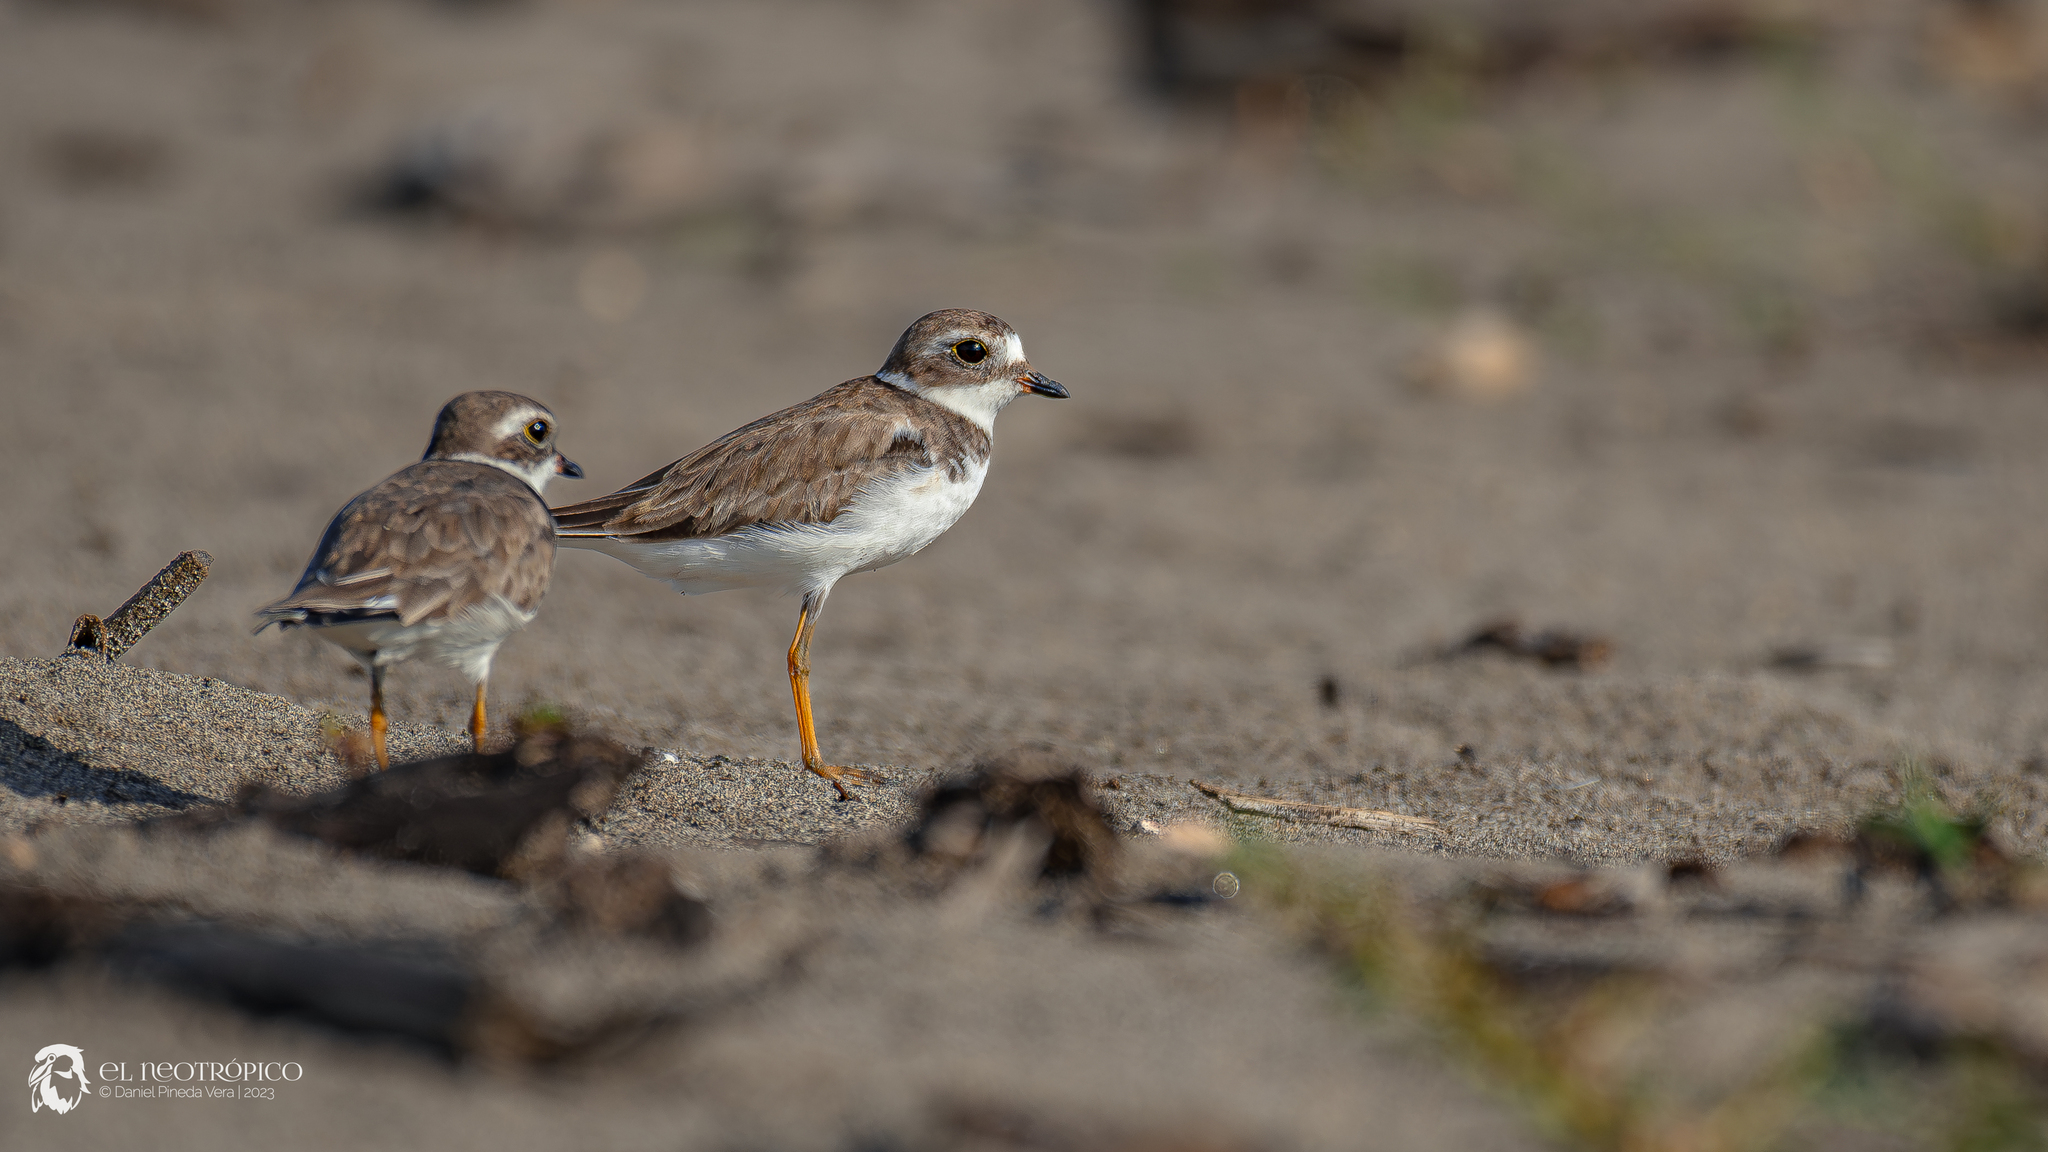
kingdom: Animalia
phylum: Chordata
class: Aves
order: Charadriiformes
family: Charadriidae
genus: Charadrius
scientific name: Charadrius semipalmatus
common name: Semipalmated plover
